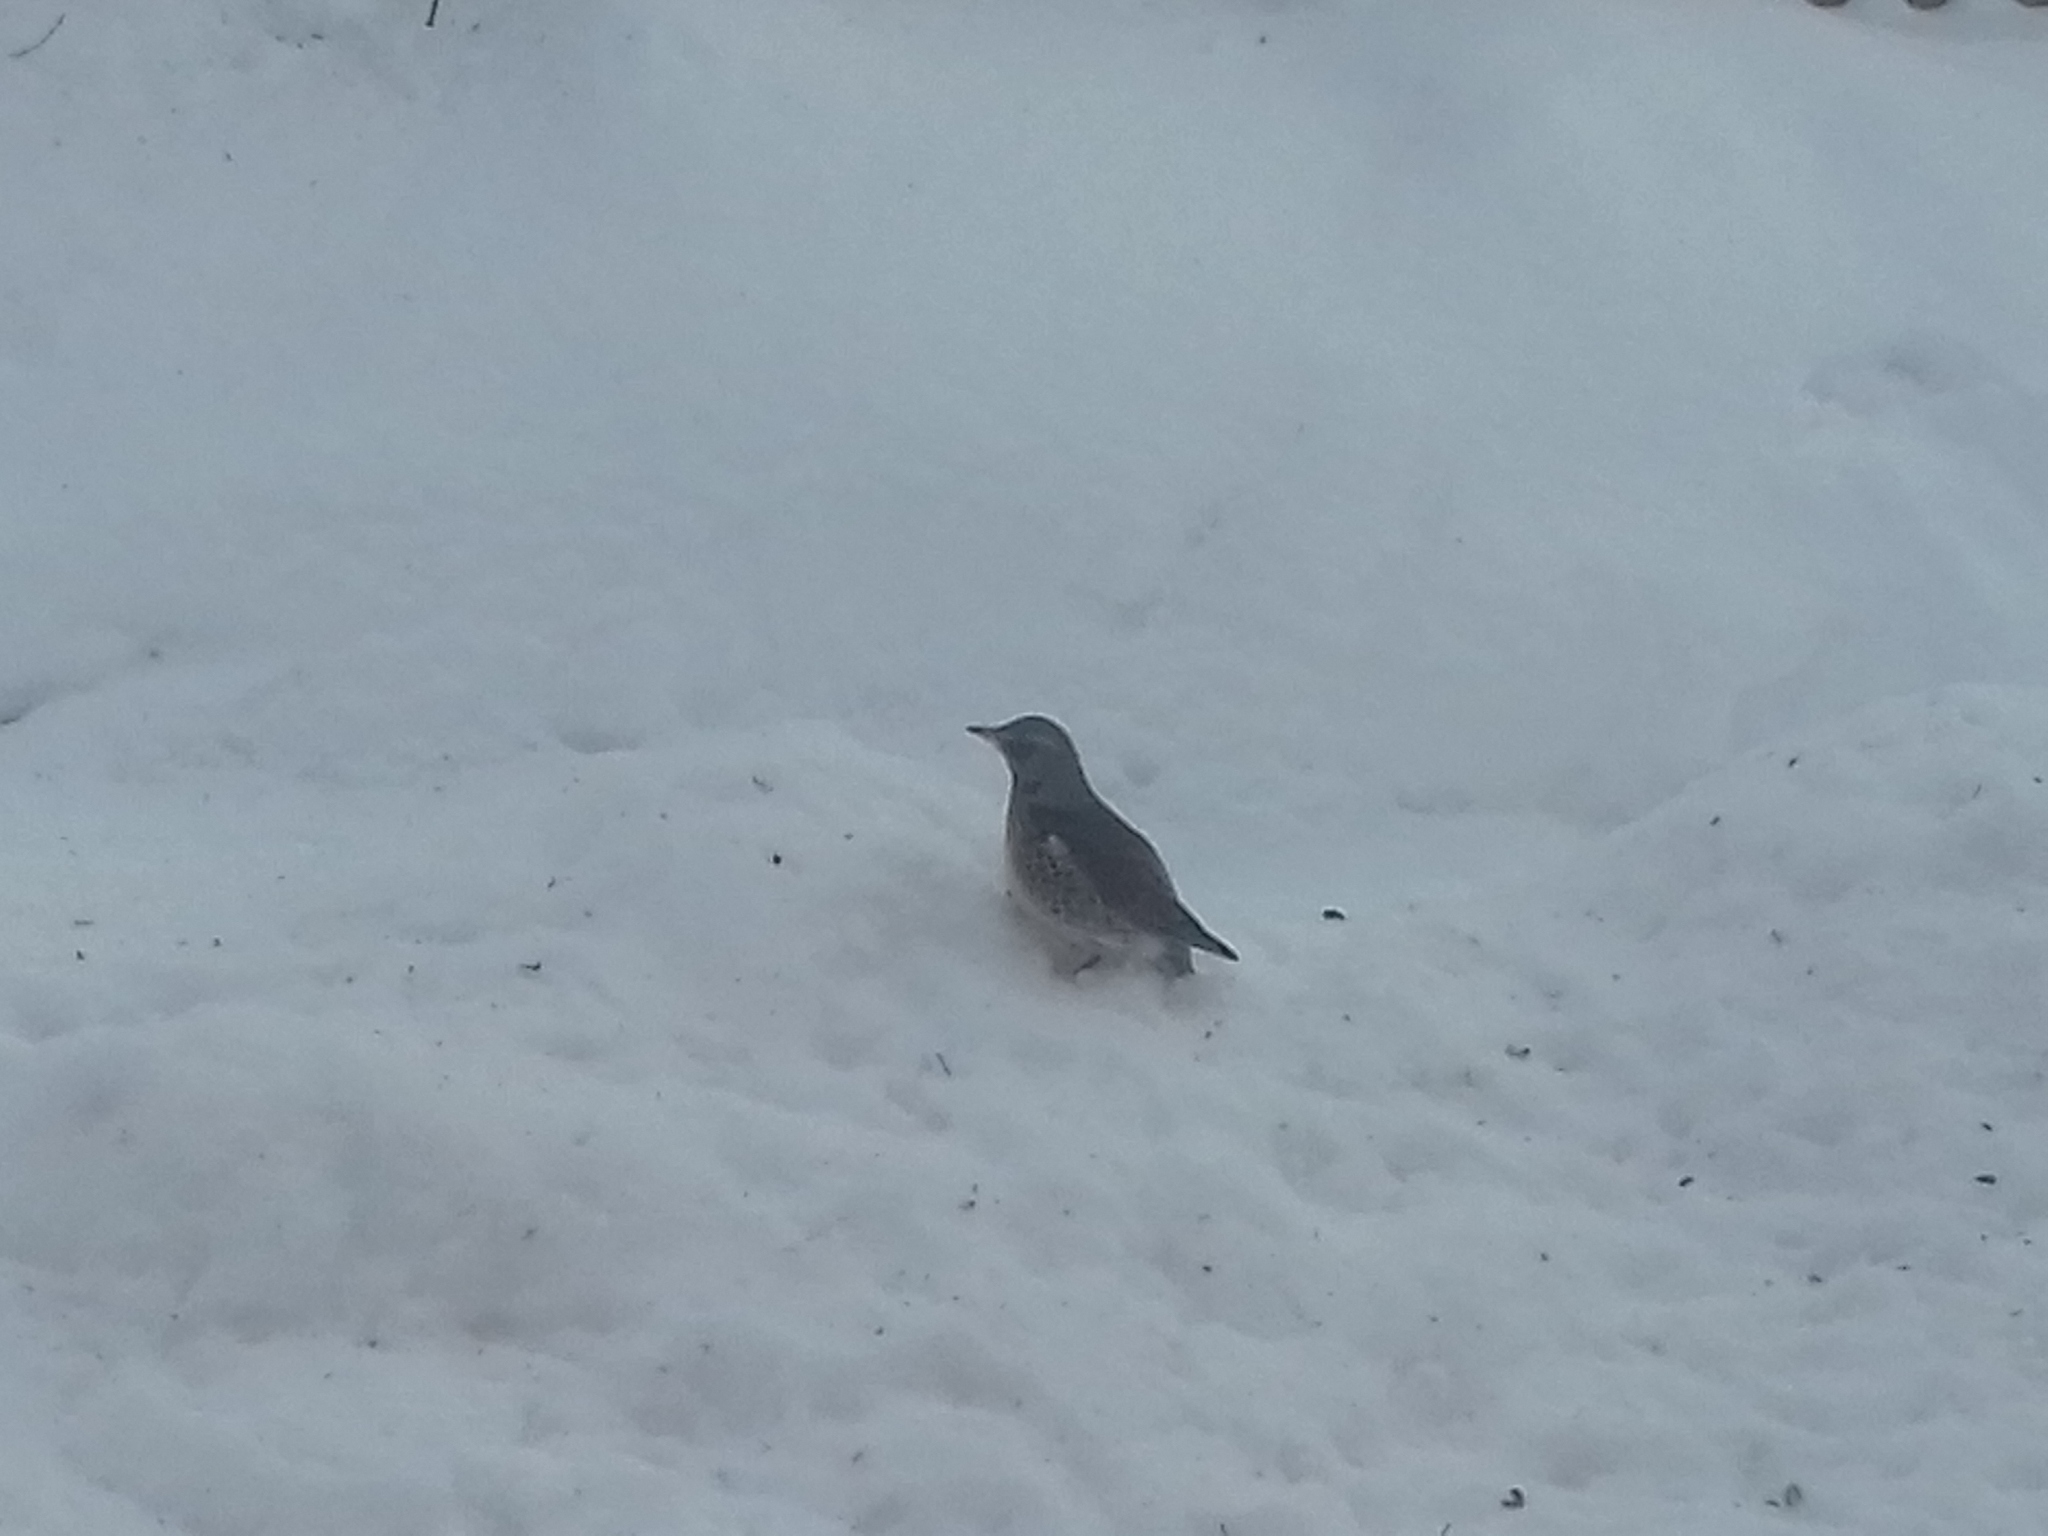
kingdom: Animalia
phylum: Chordata
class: Aves
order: Passeriformes
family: Turdidae
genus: Turdus
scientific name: Turdus pilaris
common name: Fieldfare
